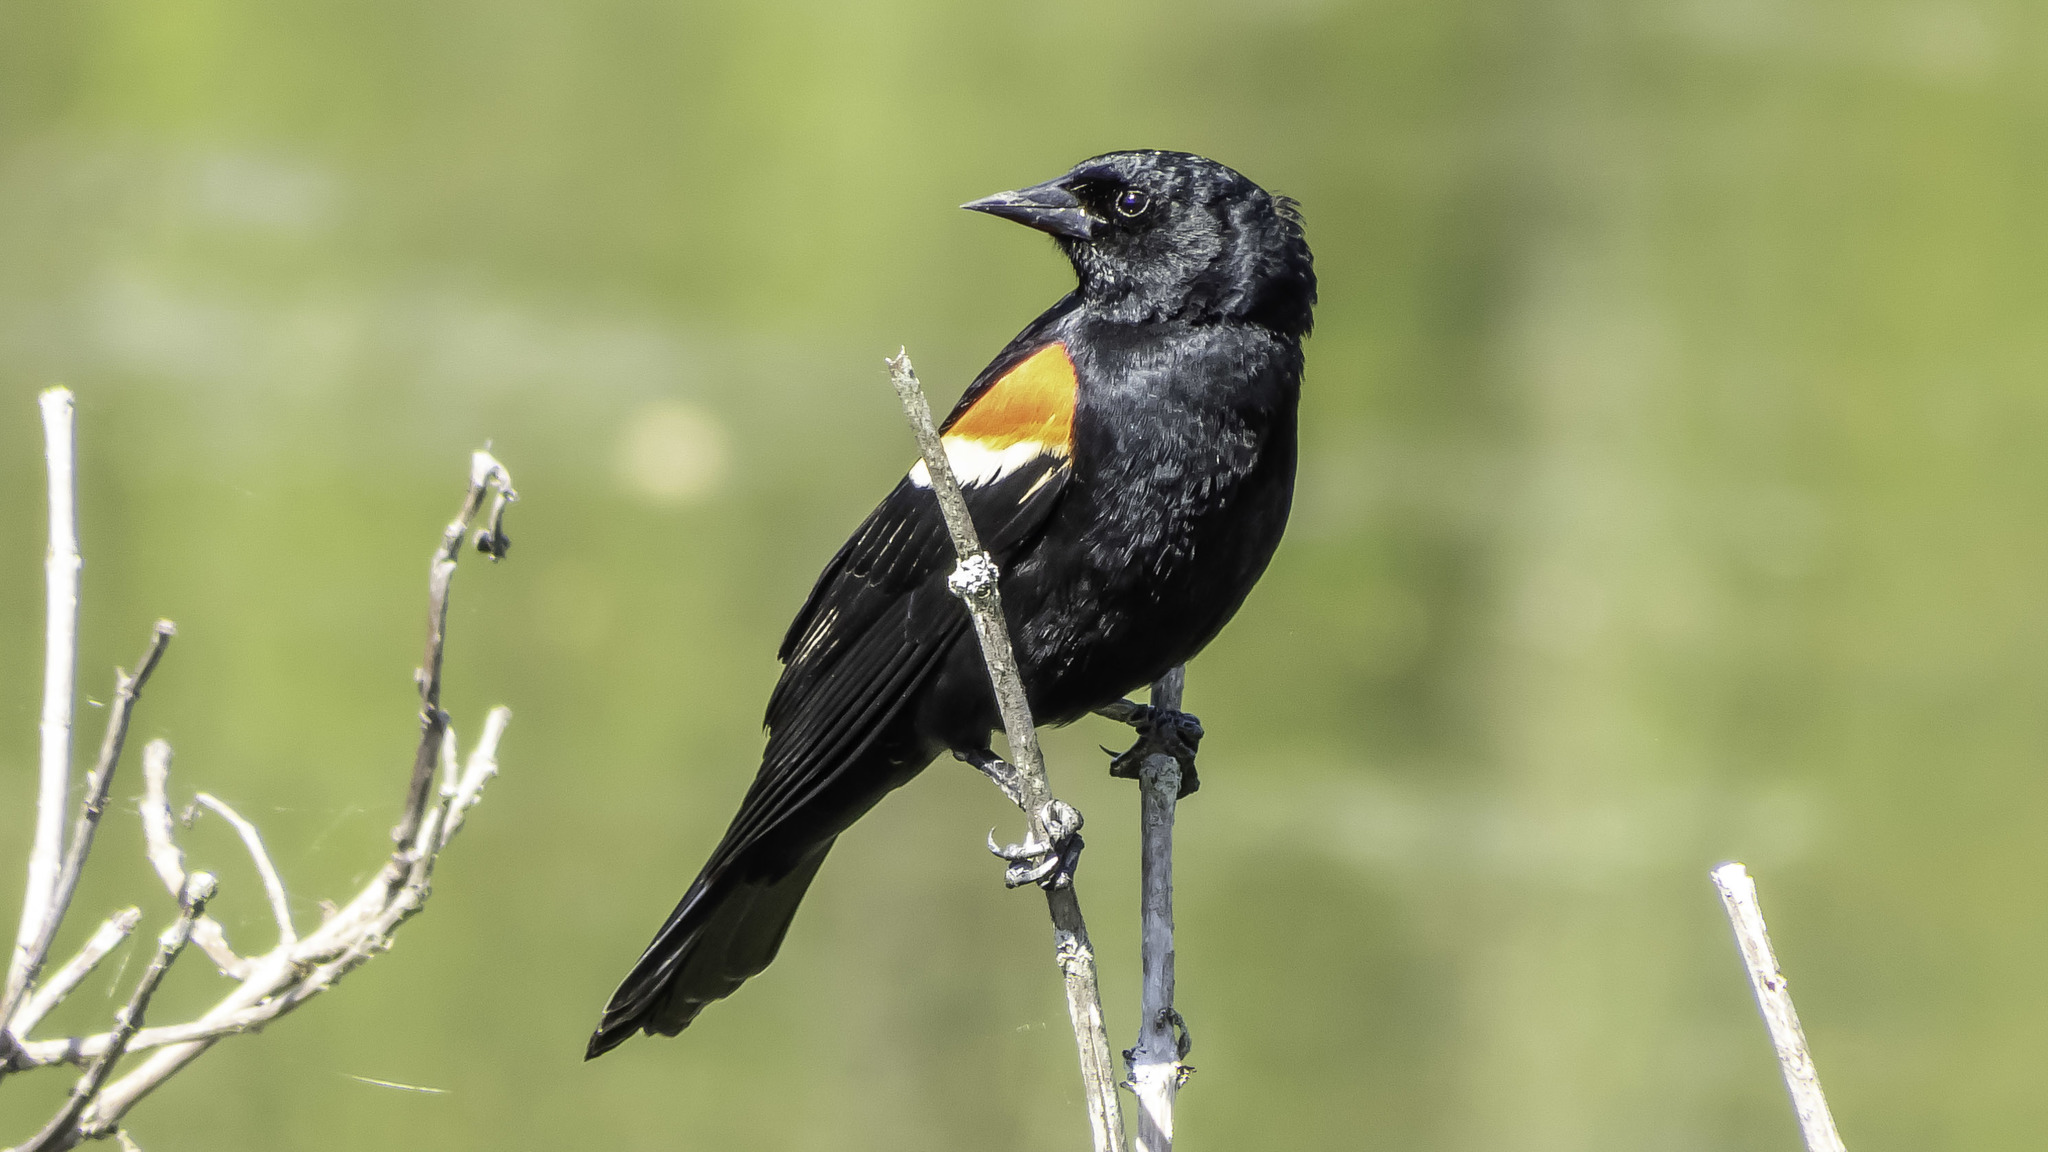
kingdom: Animalia
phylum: Chordata
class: Aves
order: Passeriformes
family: Icteridae
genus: Agelaius
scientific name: Agelaius phoeniceus
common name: Red-winged blackbird
